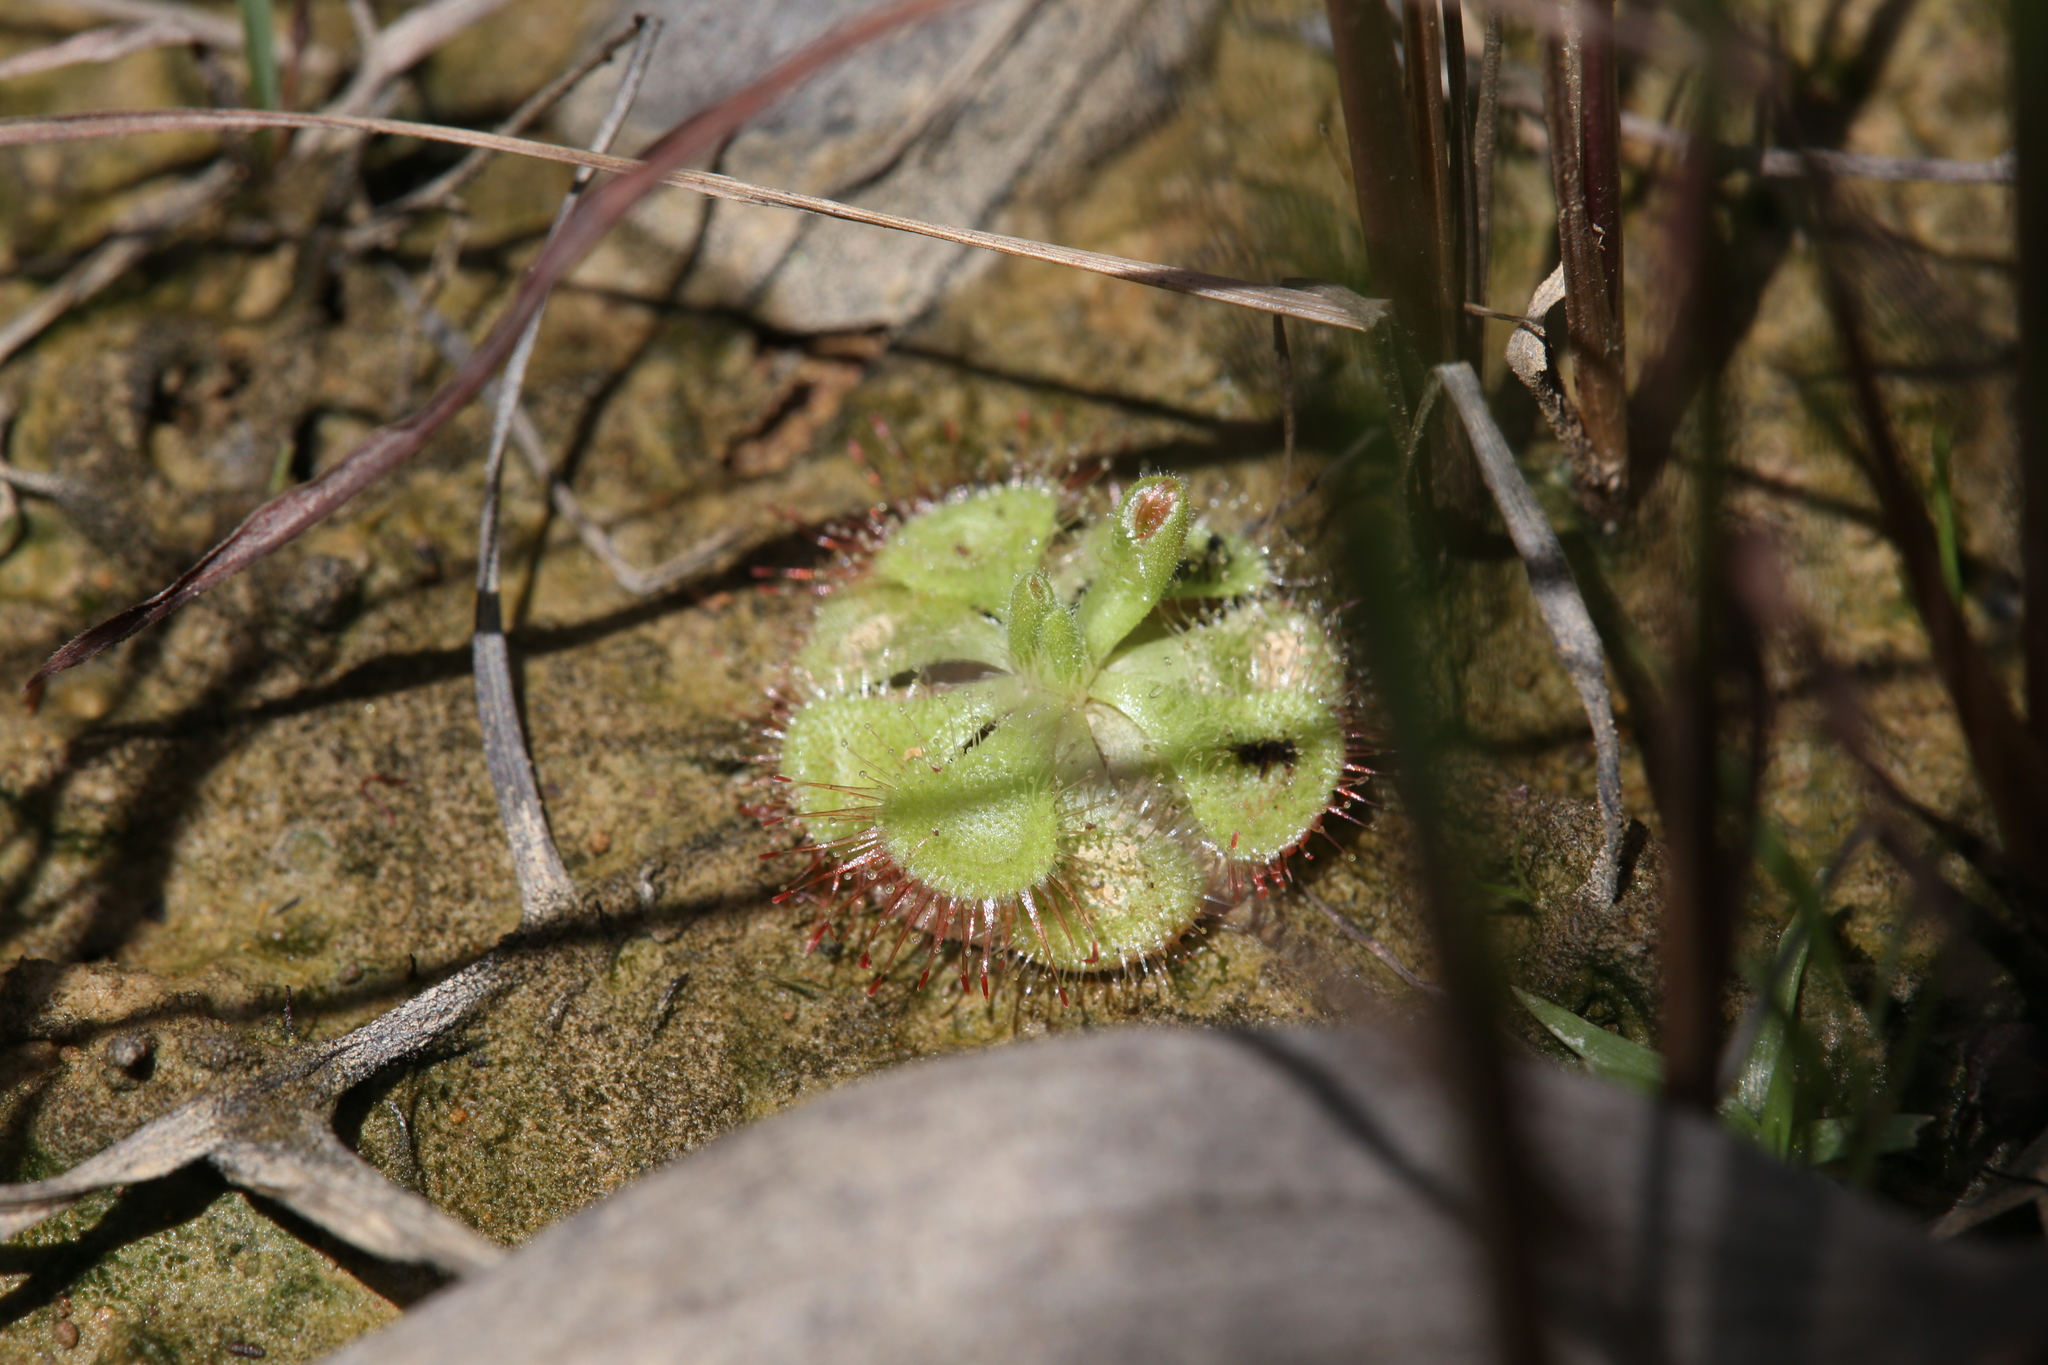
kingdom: Plantae
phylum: Tracheophyta
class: Magnoliopsida
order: Caryophyllales
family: Droseraceae
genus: Drosera
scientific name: Drosera spatulata
